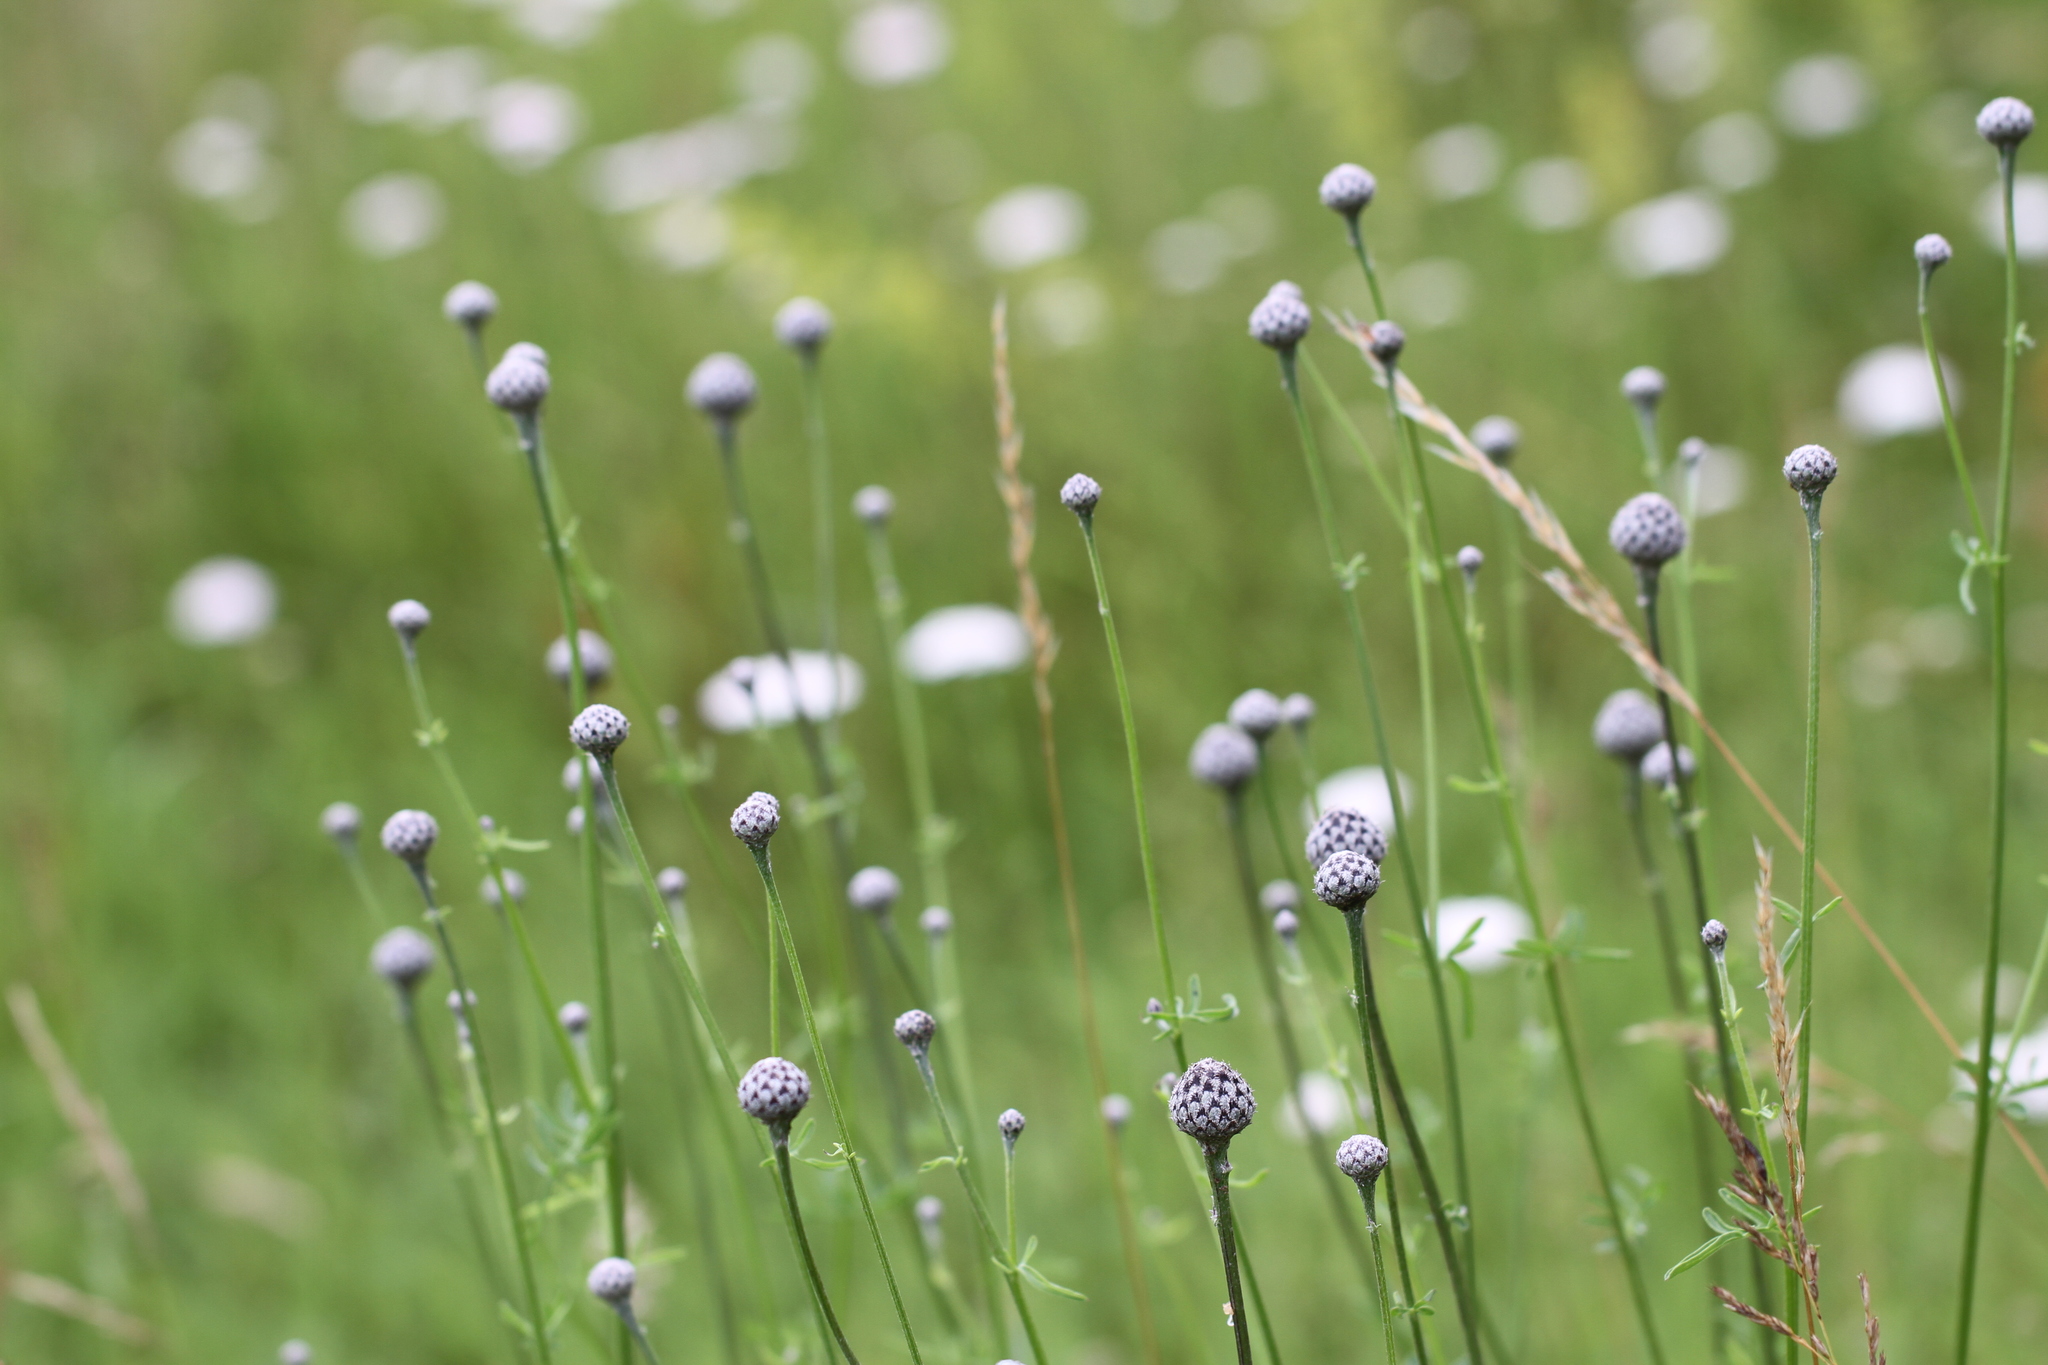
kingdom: Plantae
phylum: Tracheophyta
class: Magnoliopsida
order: Asterales
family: Asteraceae
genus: Centaurea
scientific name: Centaurea scabiosa
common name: Greater knapweed
